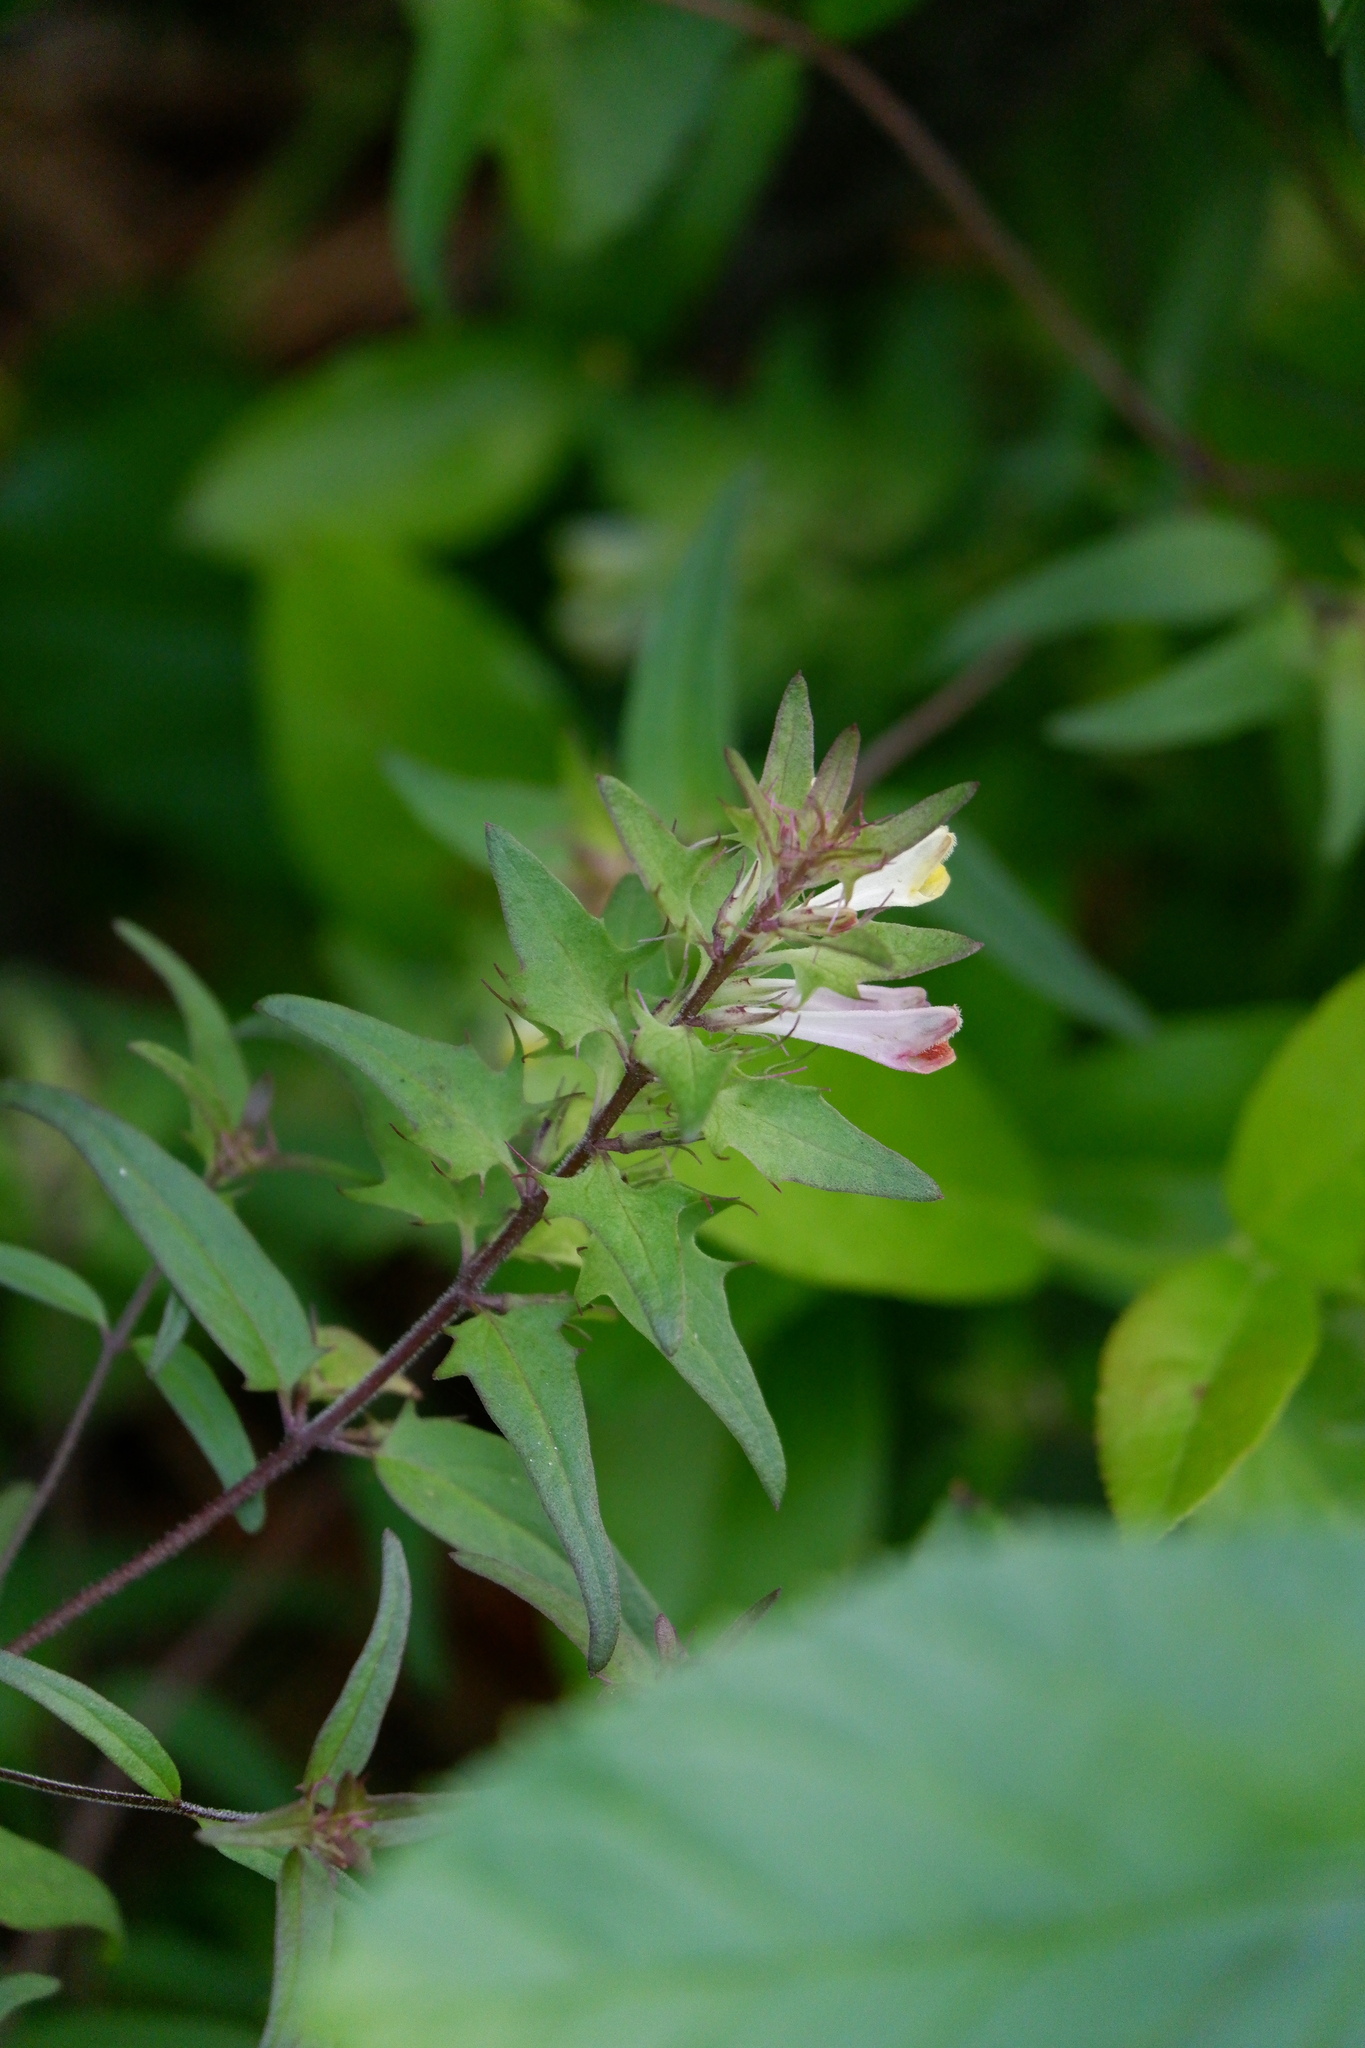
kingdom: Plantae
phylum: Tracheophyta
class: Magnoliopsida
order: Lamiales
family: Orobanchaceae
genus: Melampyrum
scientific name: Melampyrum lineare
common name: American cow-wheat
